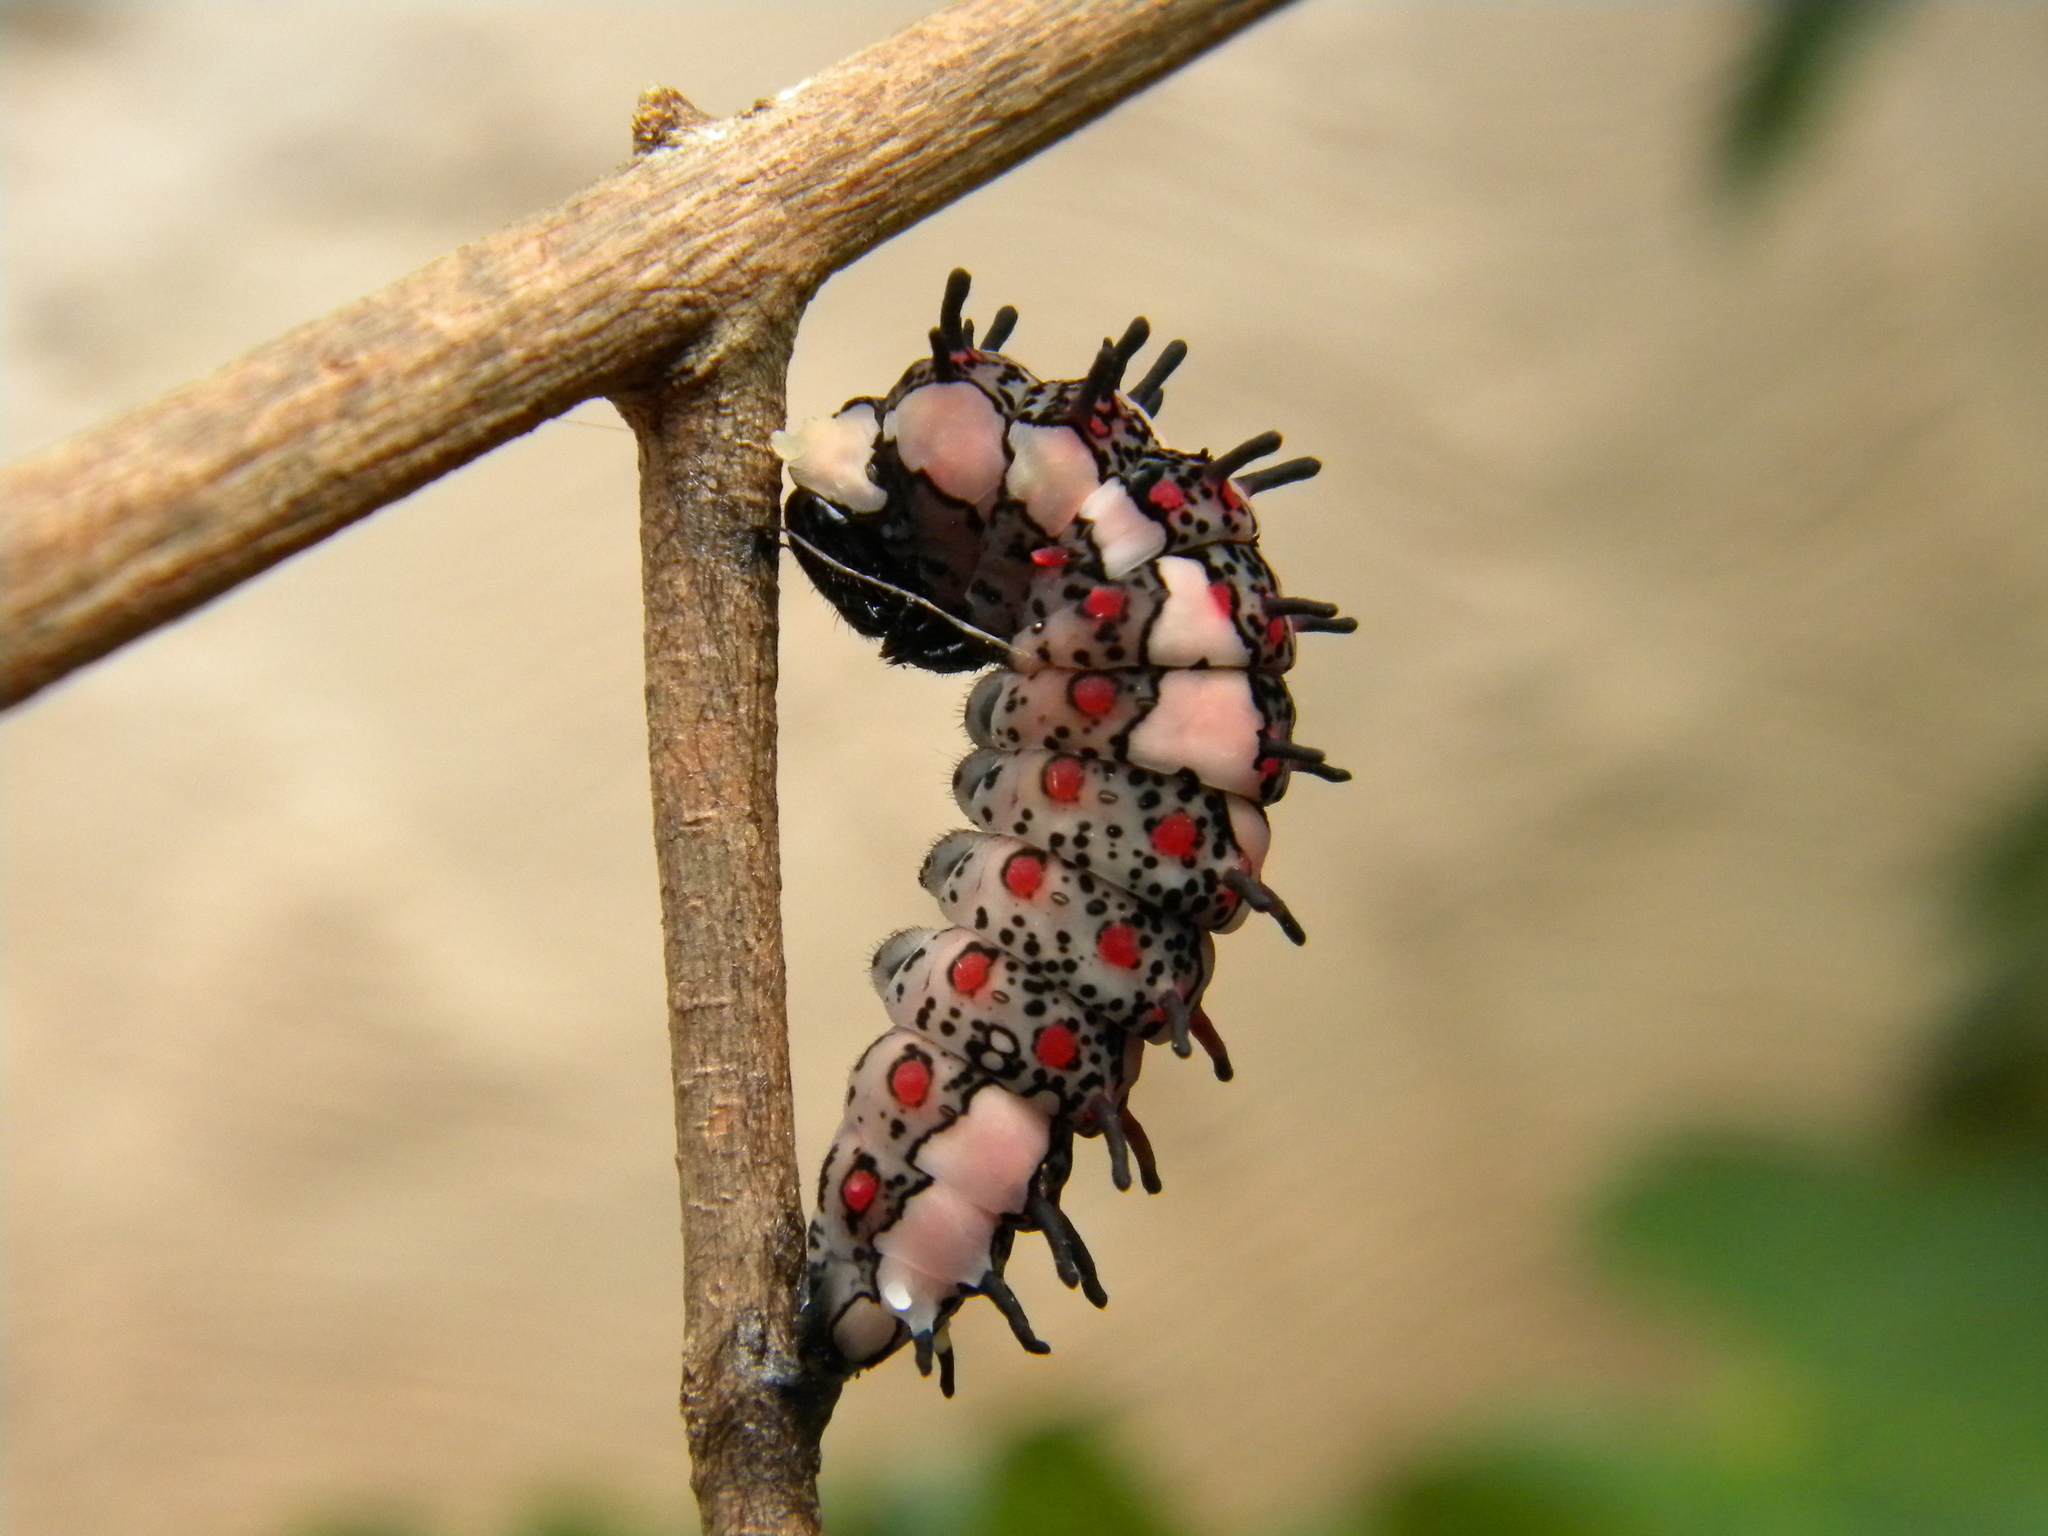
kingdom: Animalia
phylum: Arthropoda
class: Insecta
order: Lepidoptera
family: Papilionidae
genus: Chilasa
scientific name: Chilasa clytia
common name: Common mime
